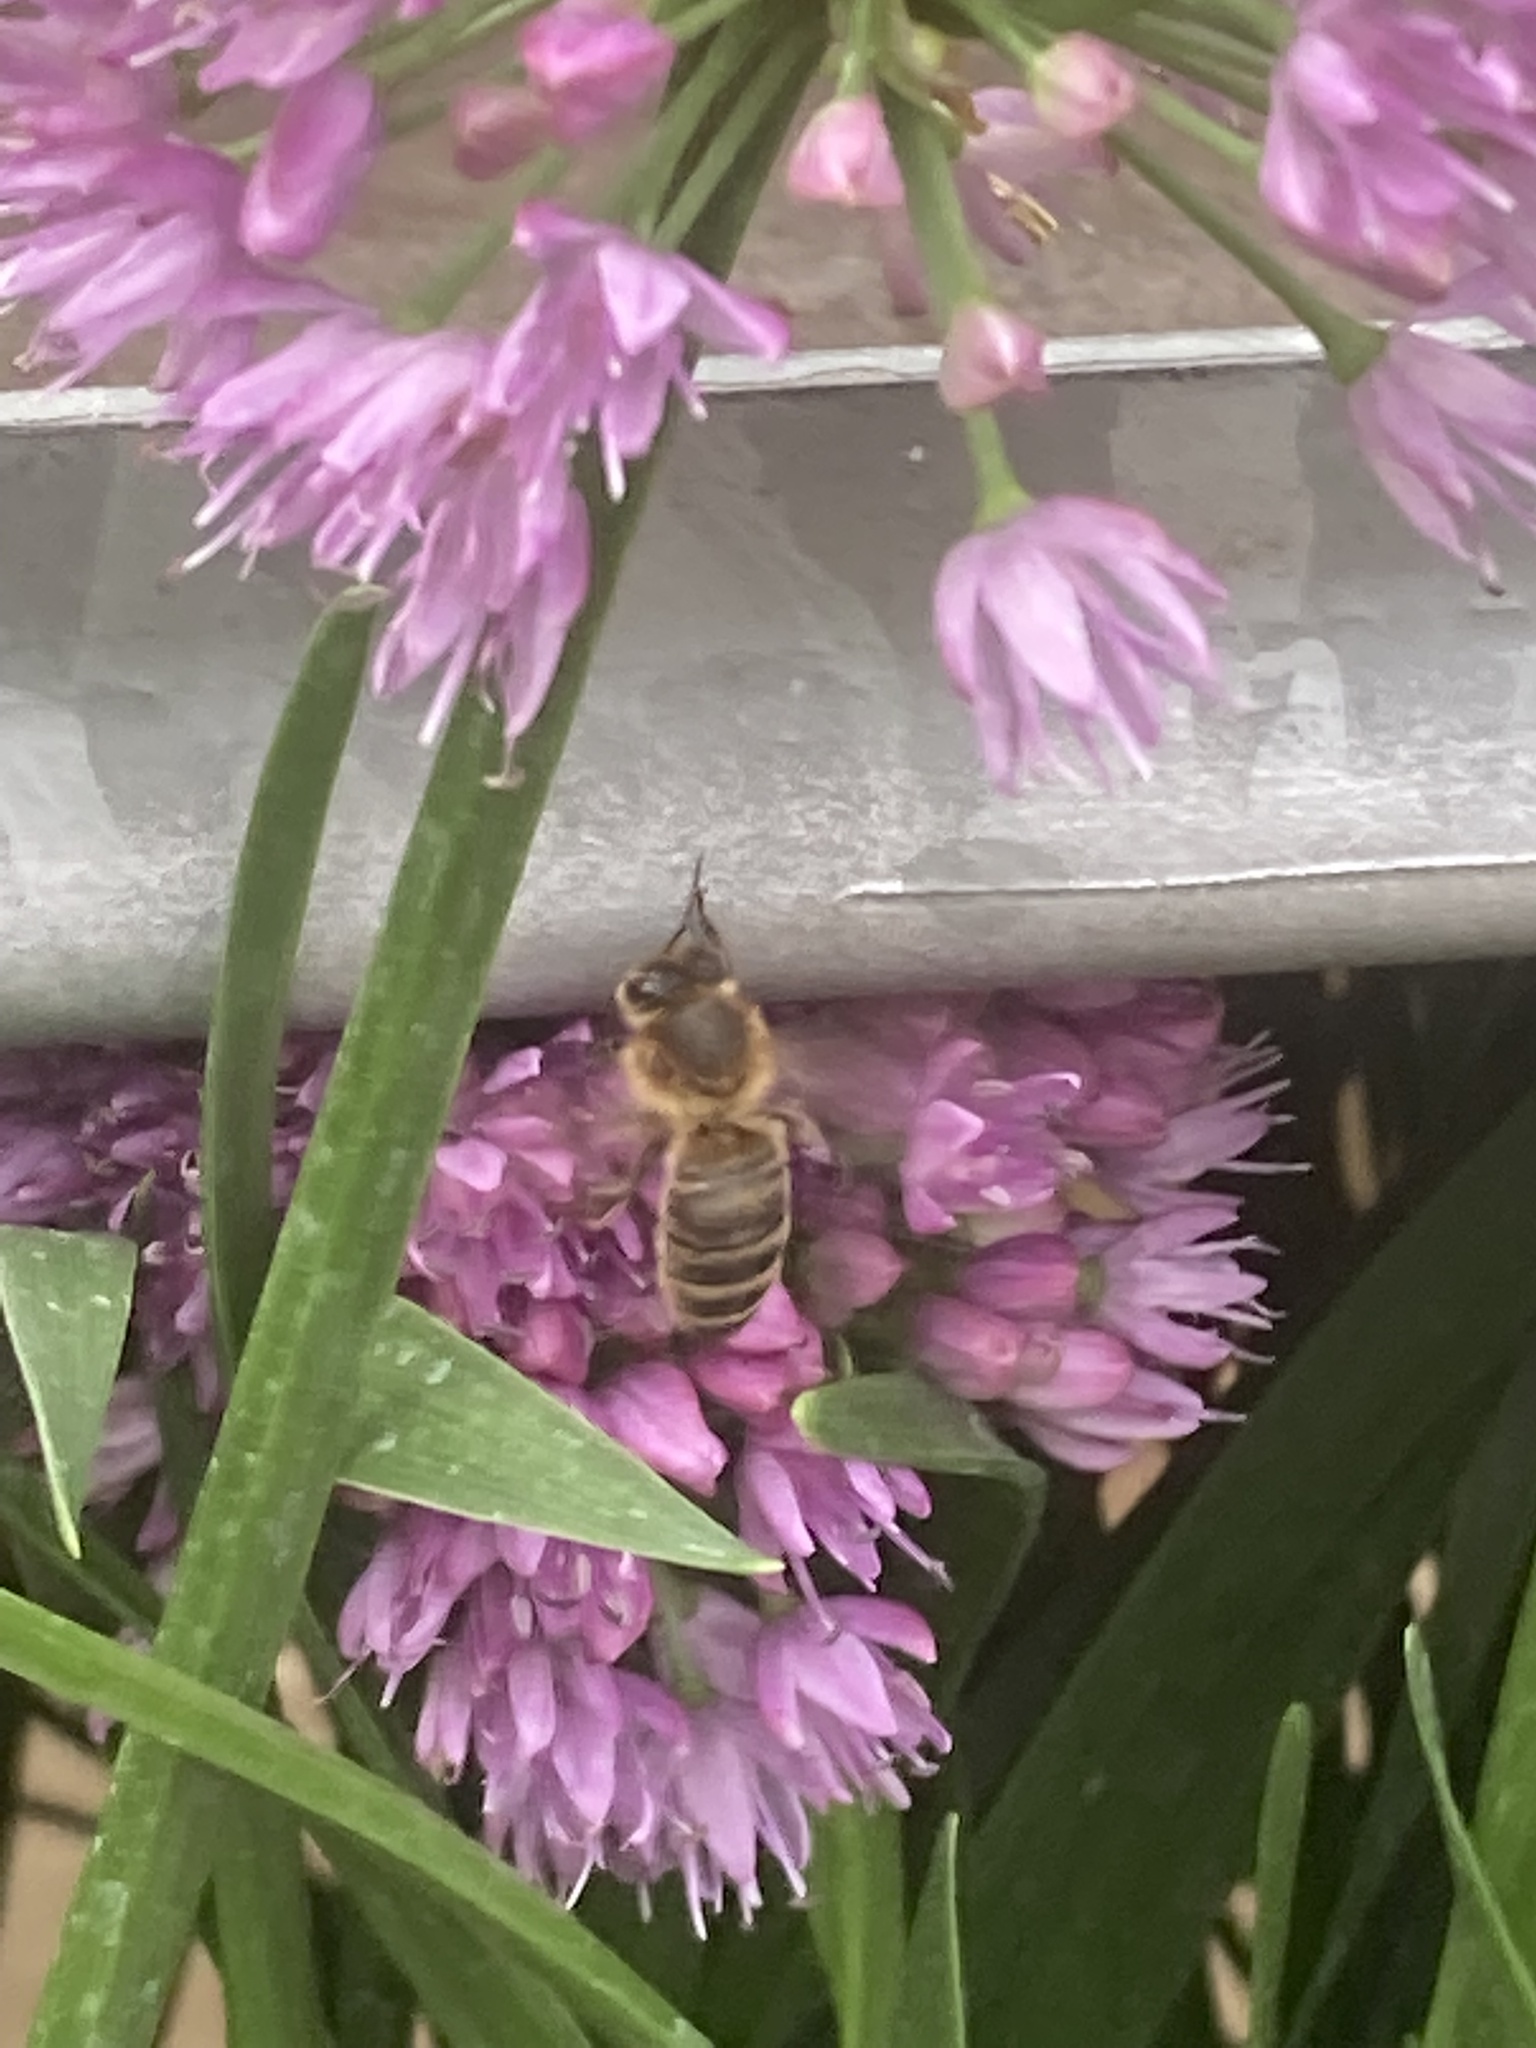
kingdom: Animalia
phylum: Arthropoda
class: Insecta
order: Hymenoptera
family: Apidae
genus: Apis
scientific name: Apis mellifera
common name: Honey bee
